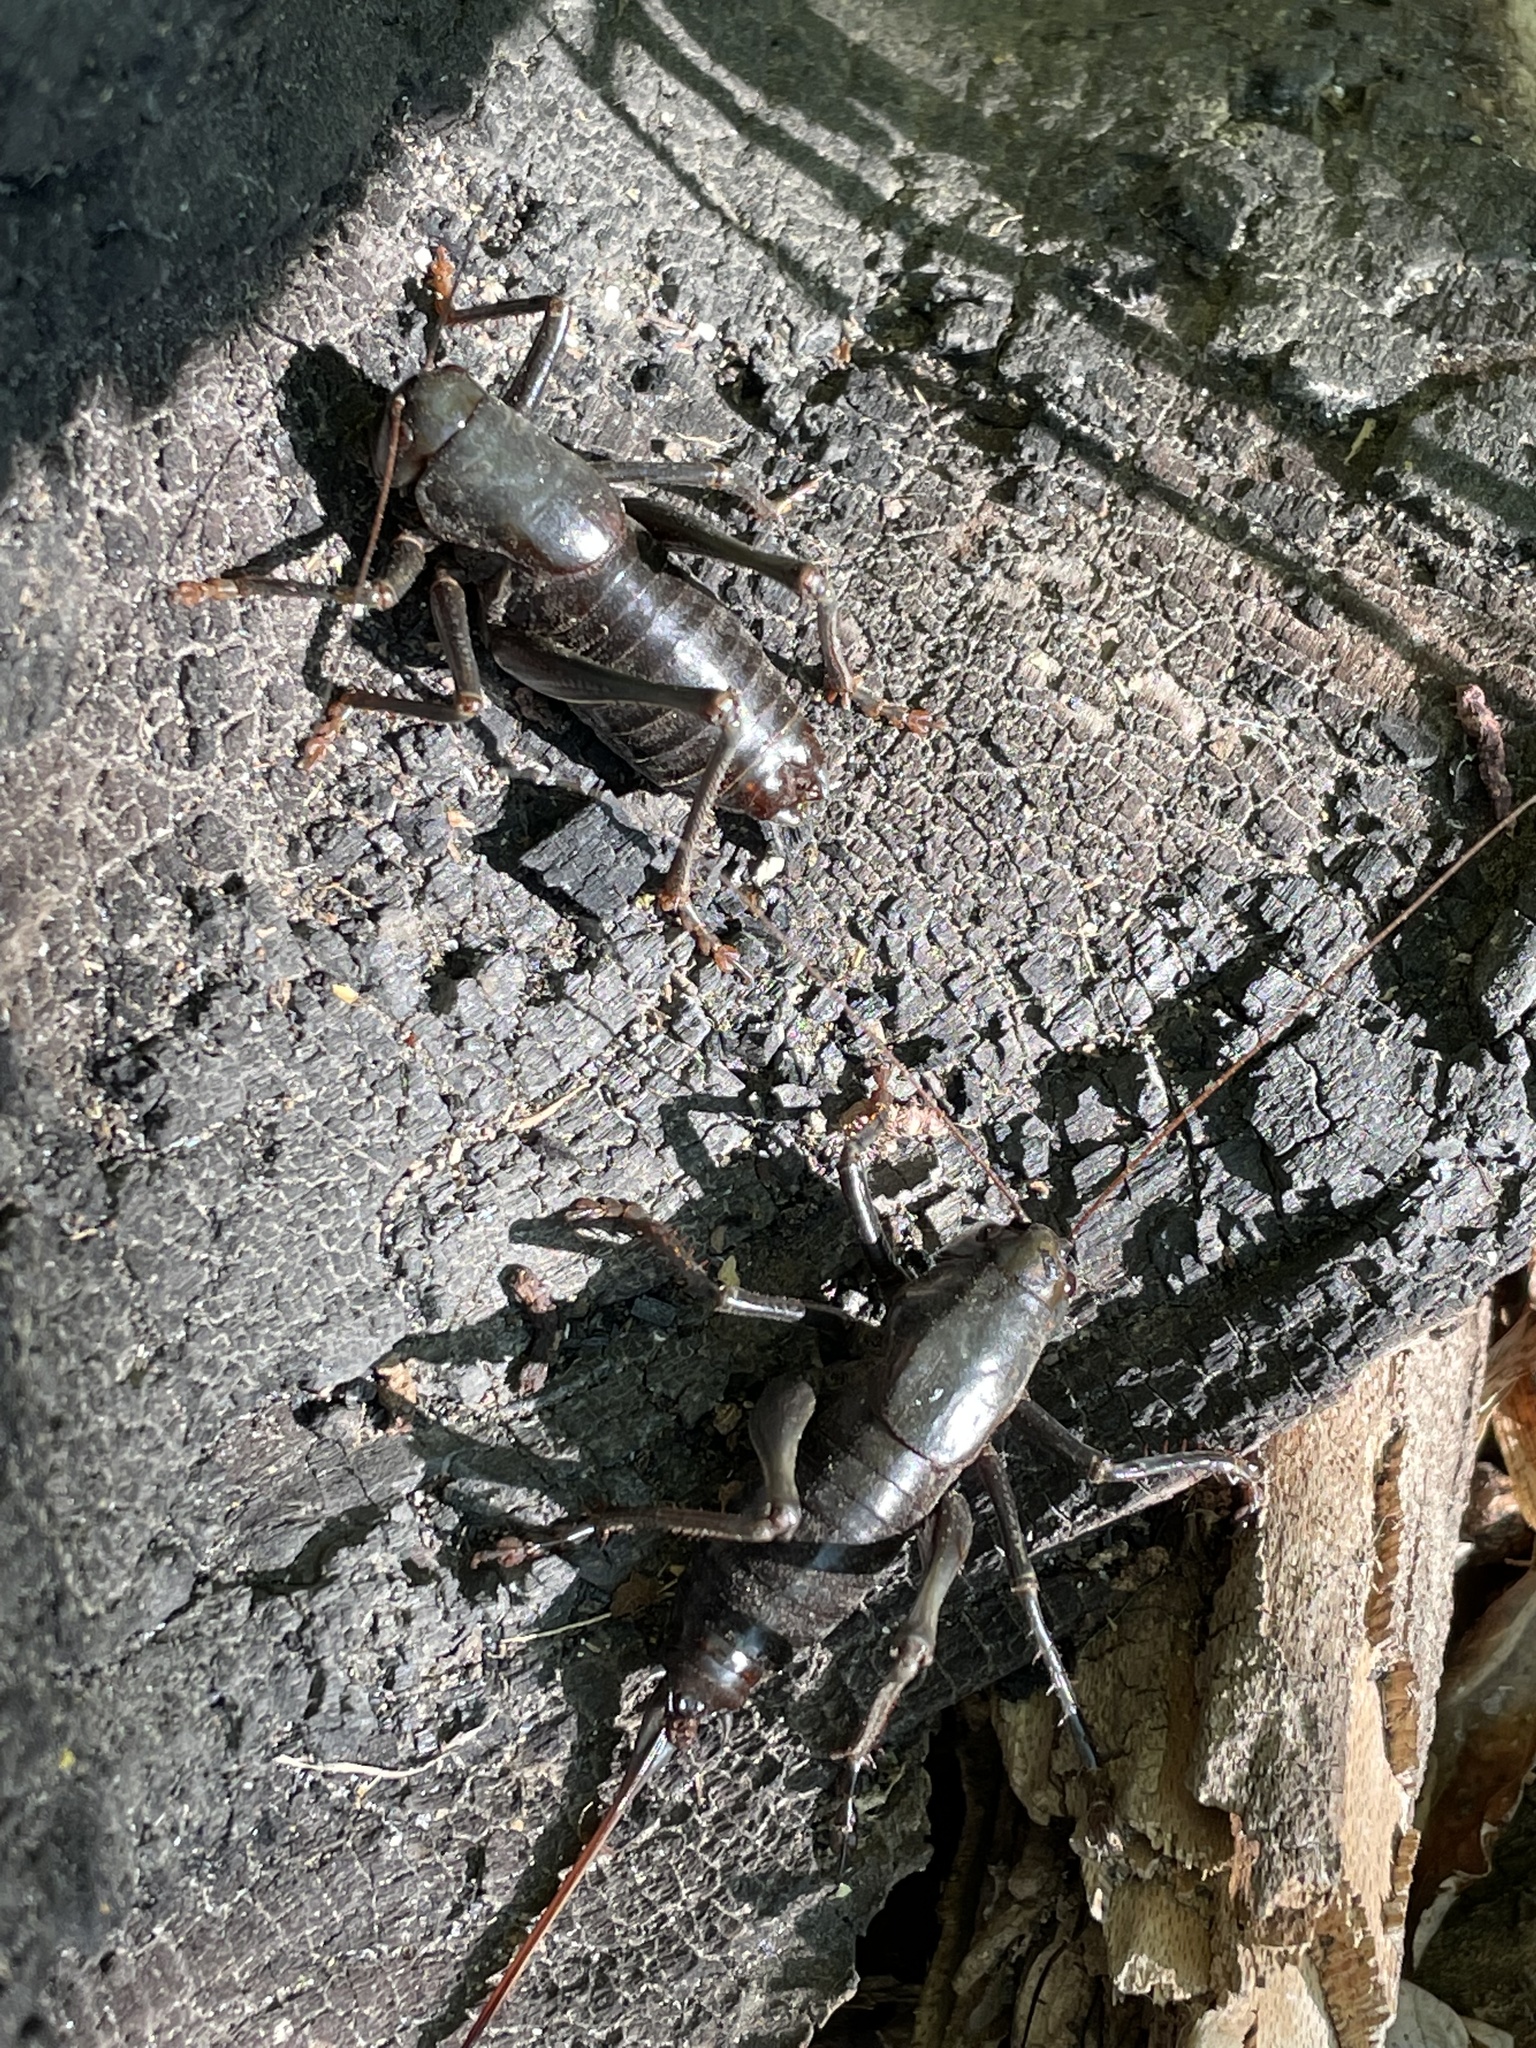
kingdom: Animalia
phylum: Arthropoda
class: Insecta
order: Orthoptera
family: Tettigoniidae
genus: Anabrus
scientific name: Anabrus simplex
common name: Mormon cricket
